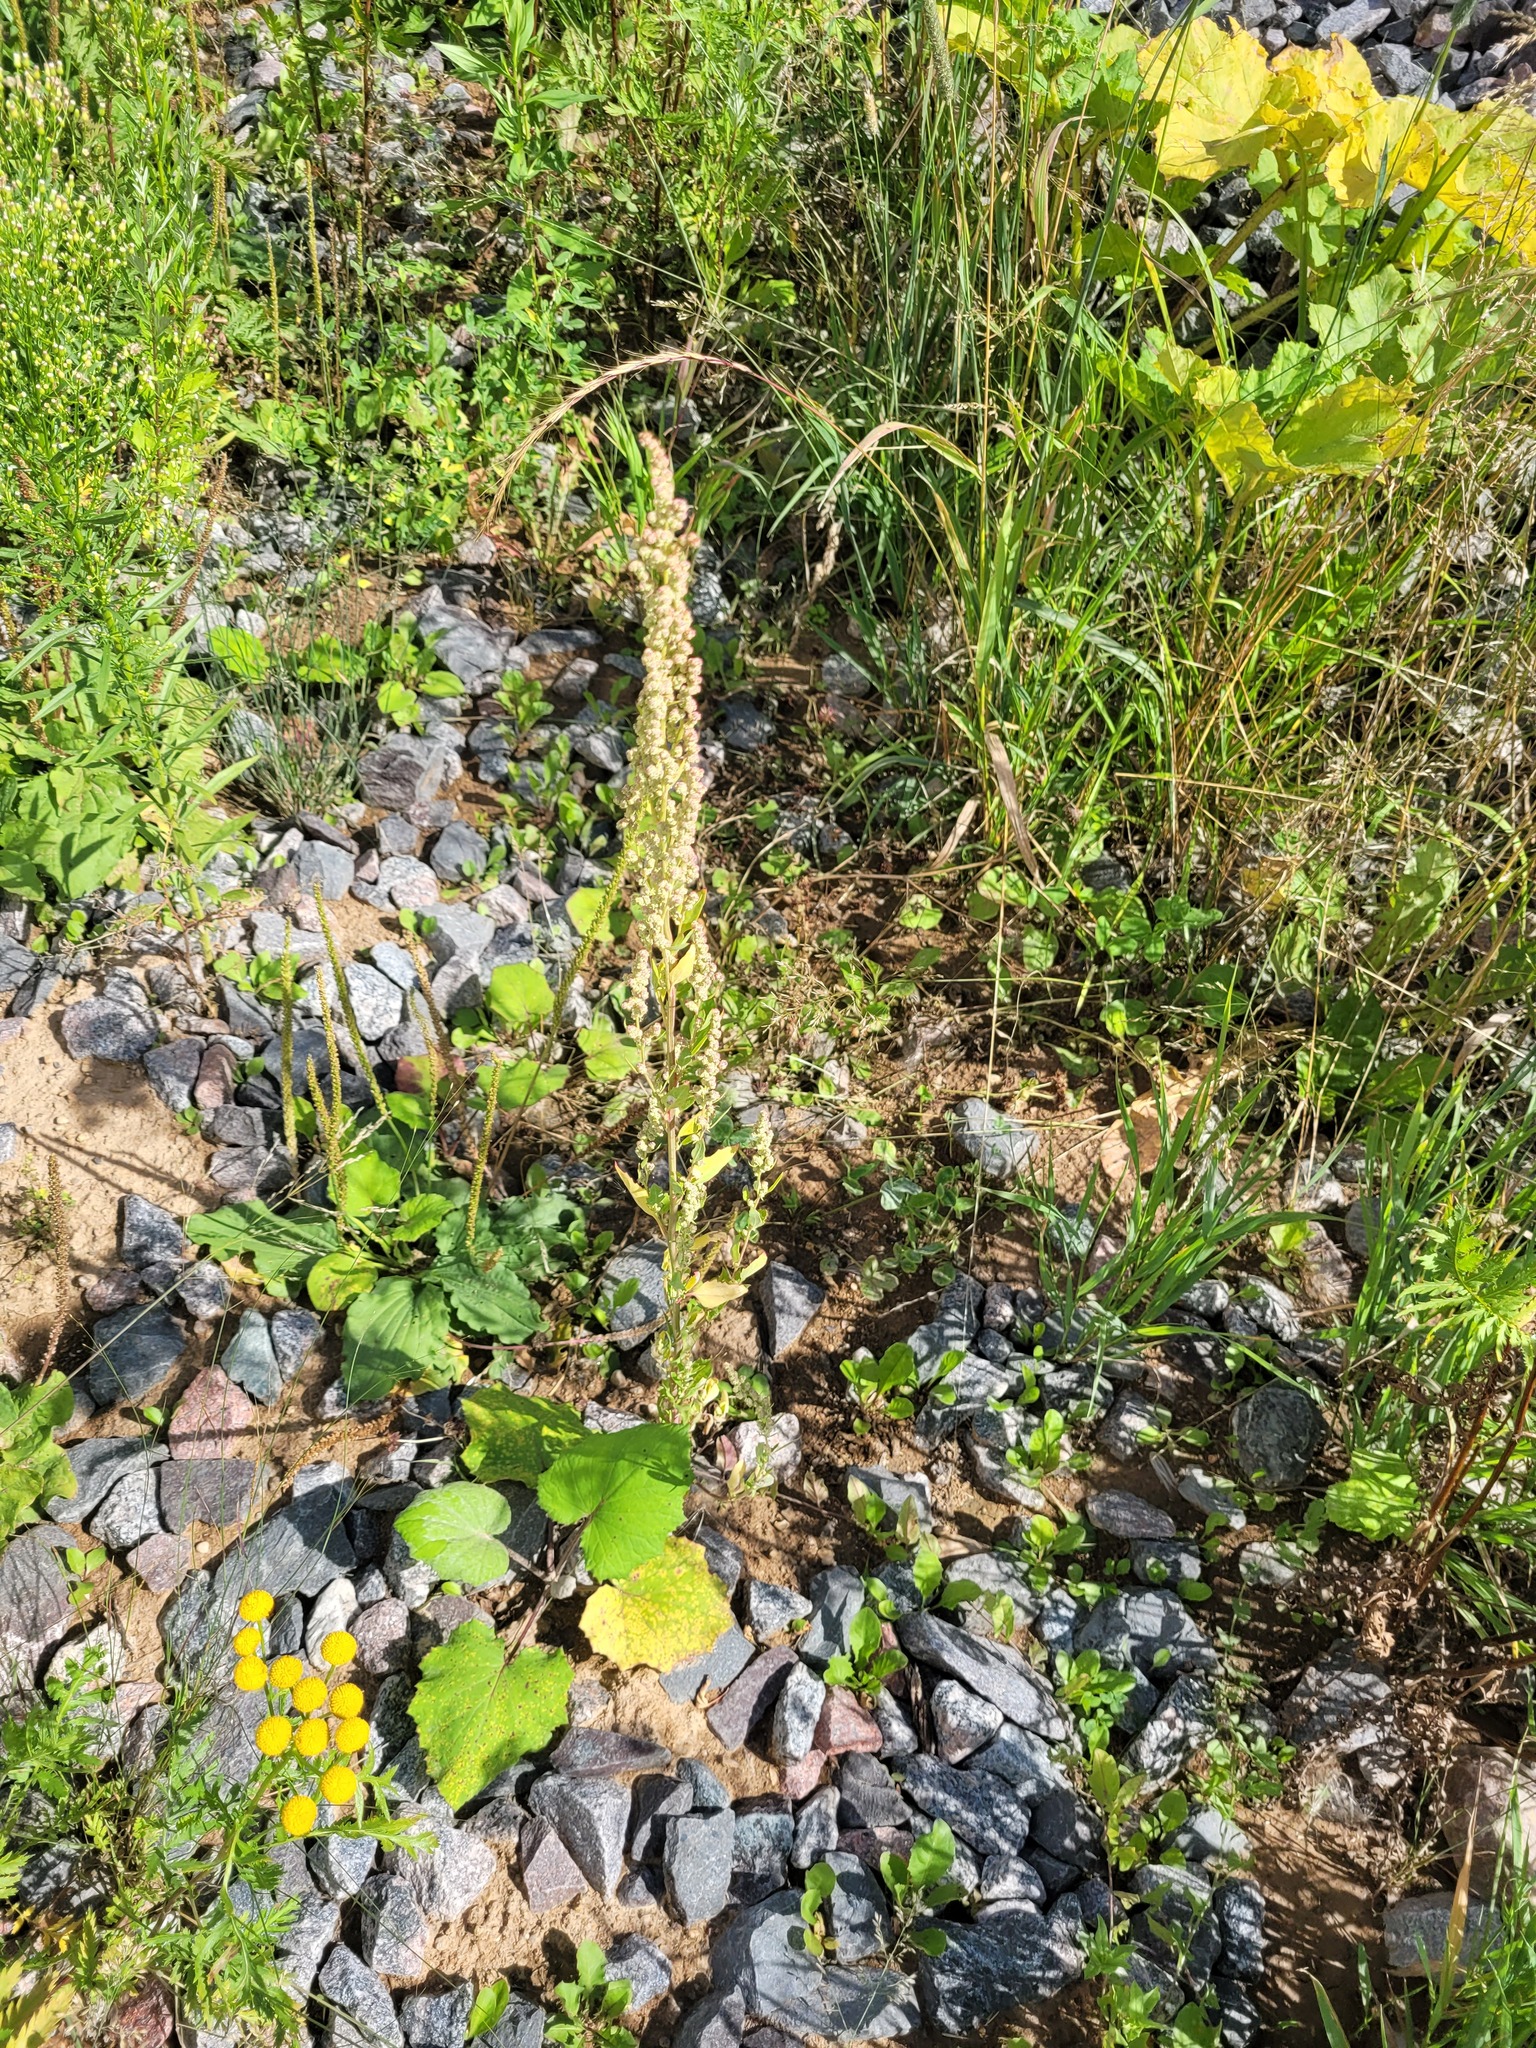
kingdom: Plantae
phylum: Tracheophyta
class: Magnoliopsida
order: Caryophyllales
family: Amaranthaceae
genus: Chenopodium
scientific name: Chenopodium album
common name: Fat-hen
